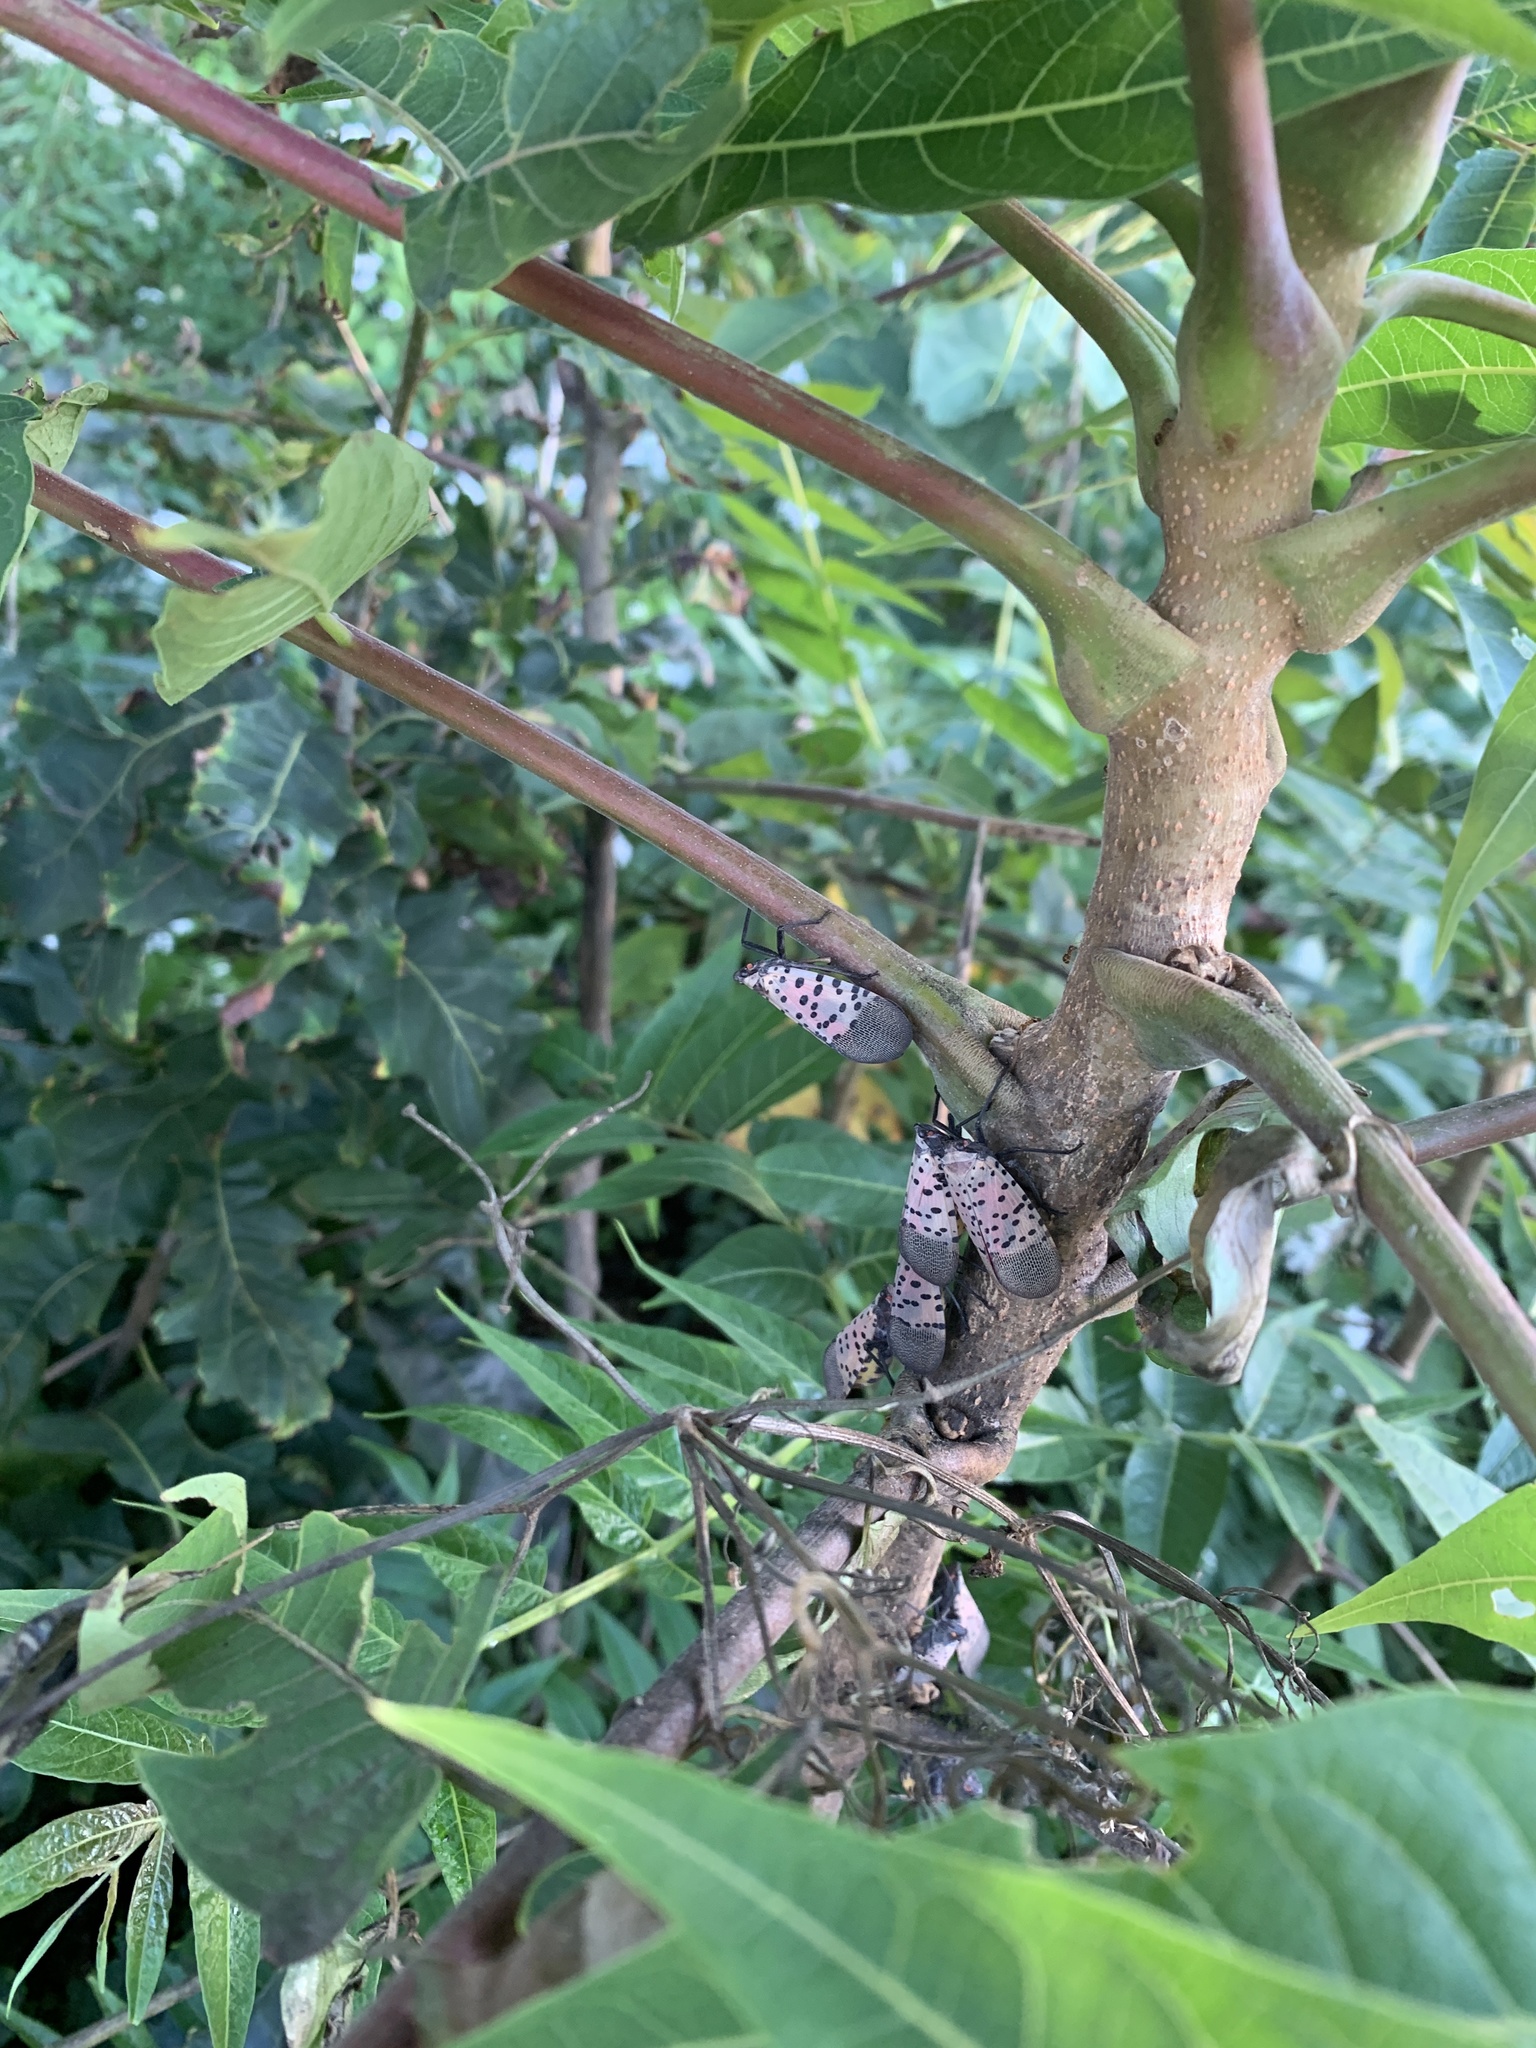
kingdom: Animalia
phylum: Arthropoda
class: Insecta
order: Hemiptera
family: Fulgoridae
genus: Lycorma
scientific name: Lycorma delicatula
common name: Spotted lanternfly
